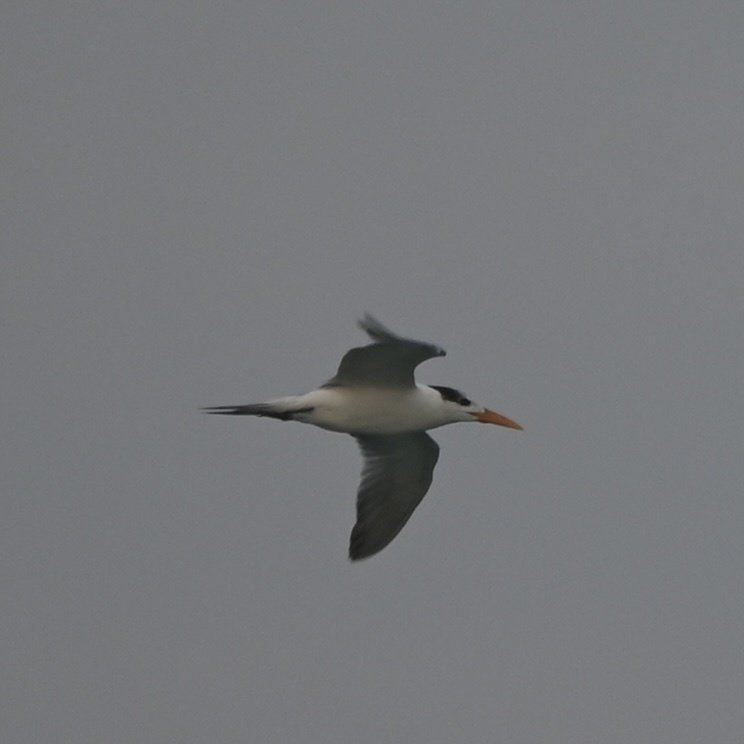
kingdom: Animalia
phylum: Chordata
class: Aves
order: Charadriiformes
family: Laridae
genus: Thalasseus
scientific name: Thalasseus maximus
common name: Royal tern
